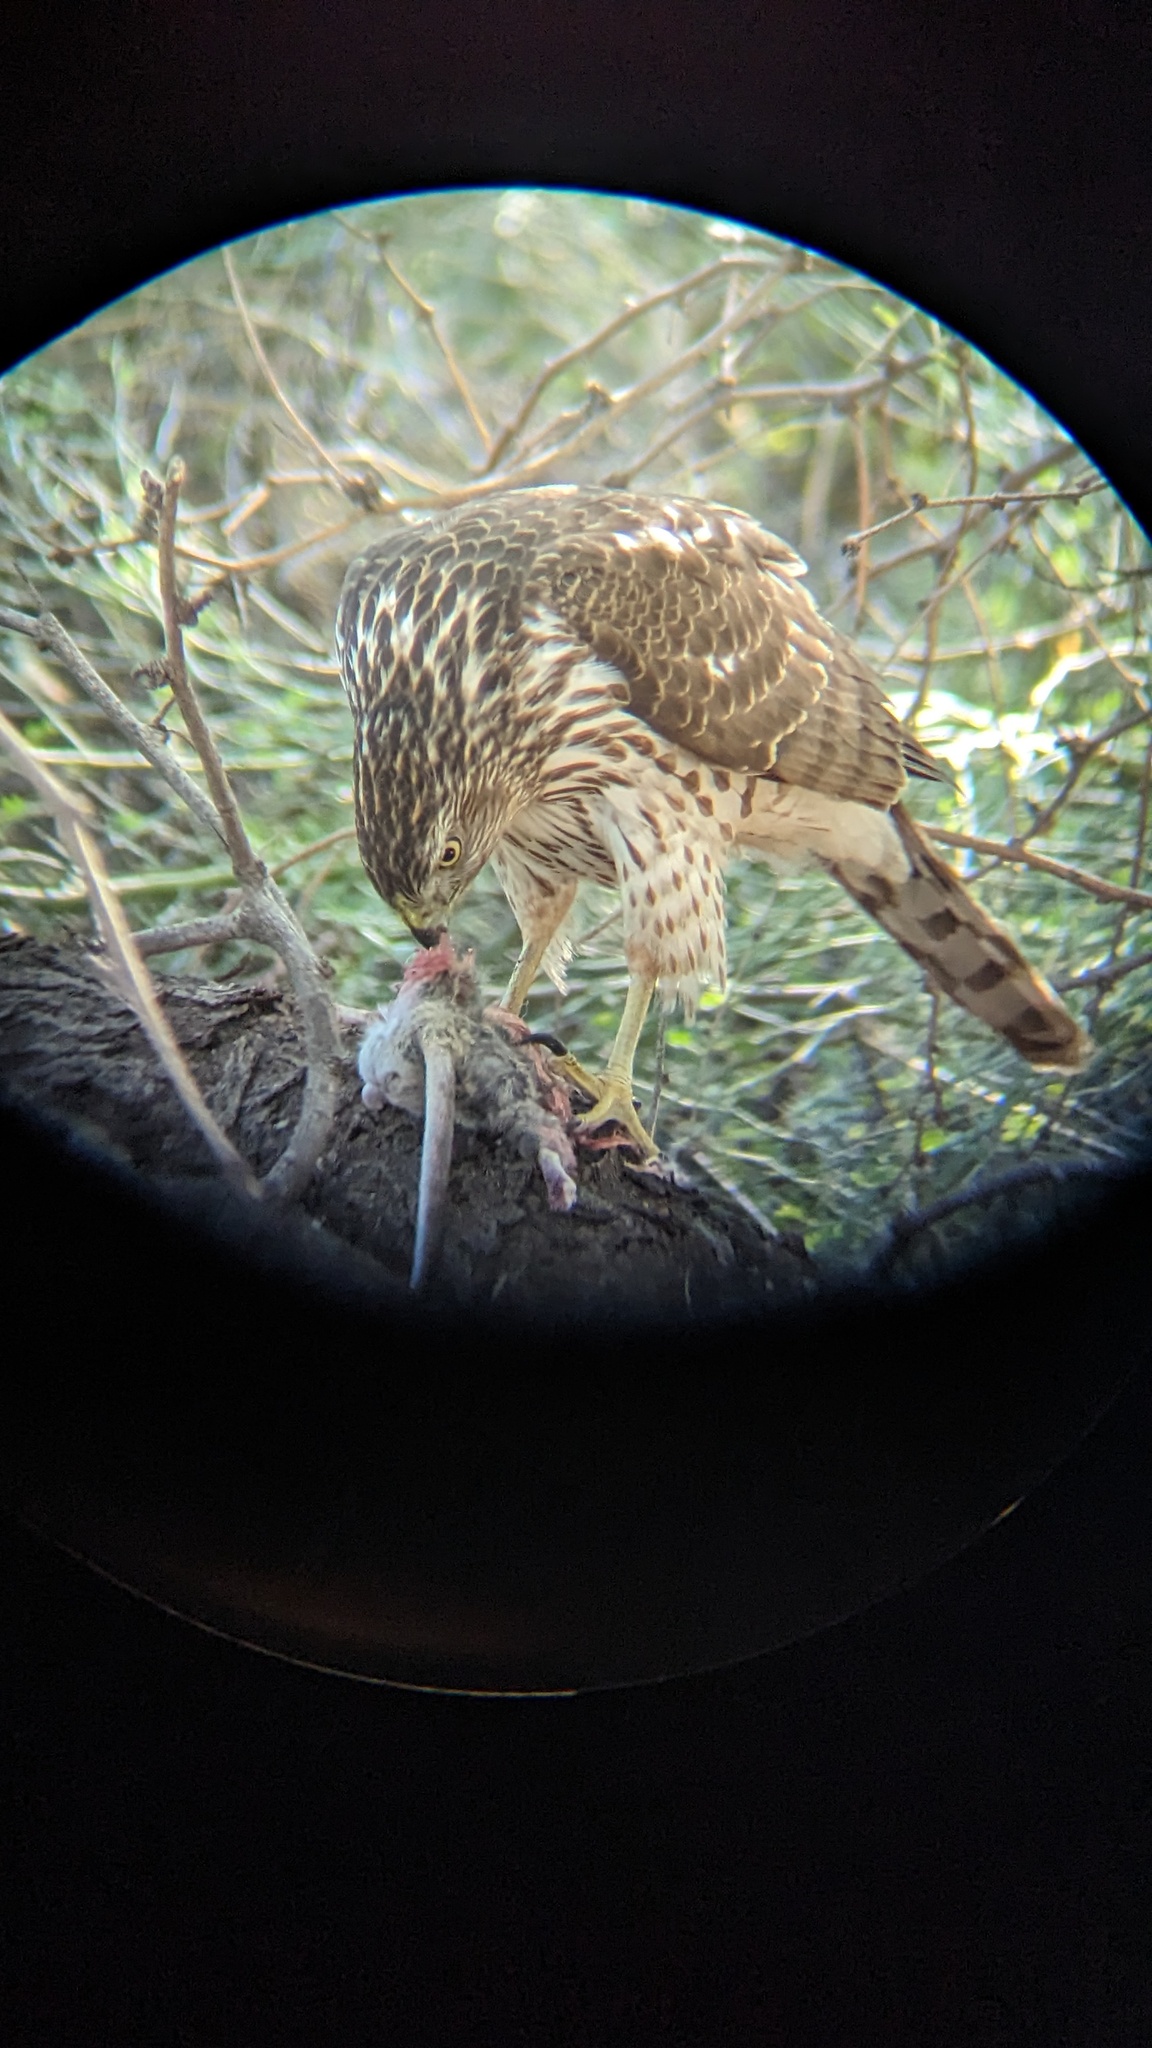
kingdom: Animalia
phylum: Chordata
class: Mammalia
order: Rodentia
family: Cricetidae
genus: Neotoma
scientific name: Neotoma albigula
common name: White-throated woodrat
